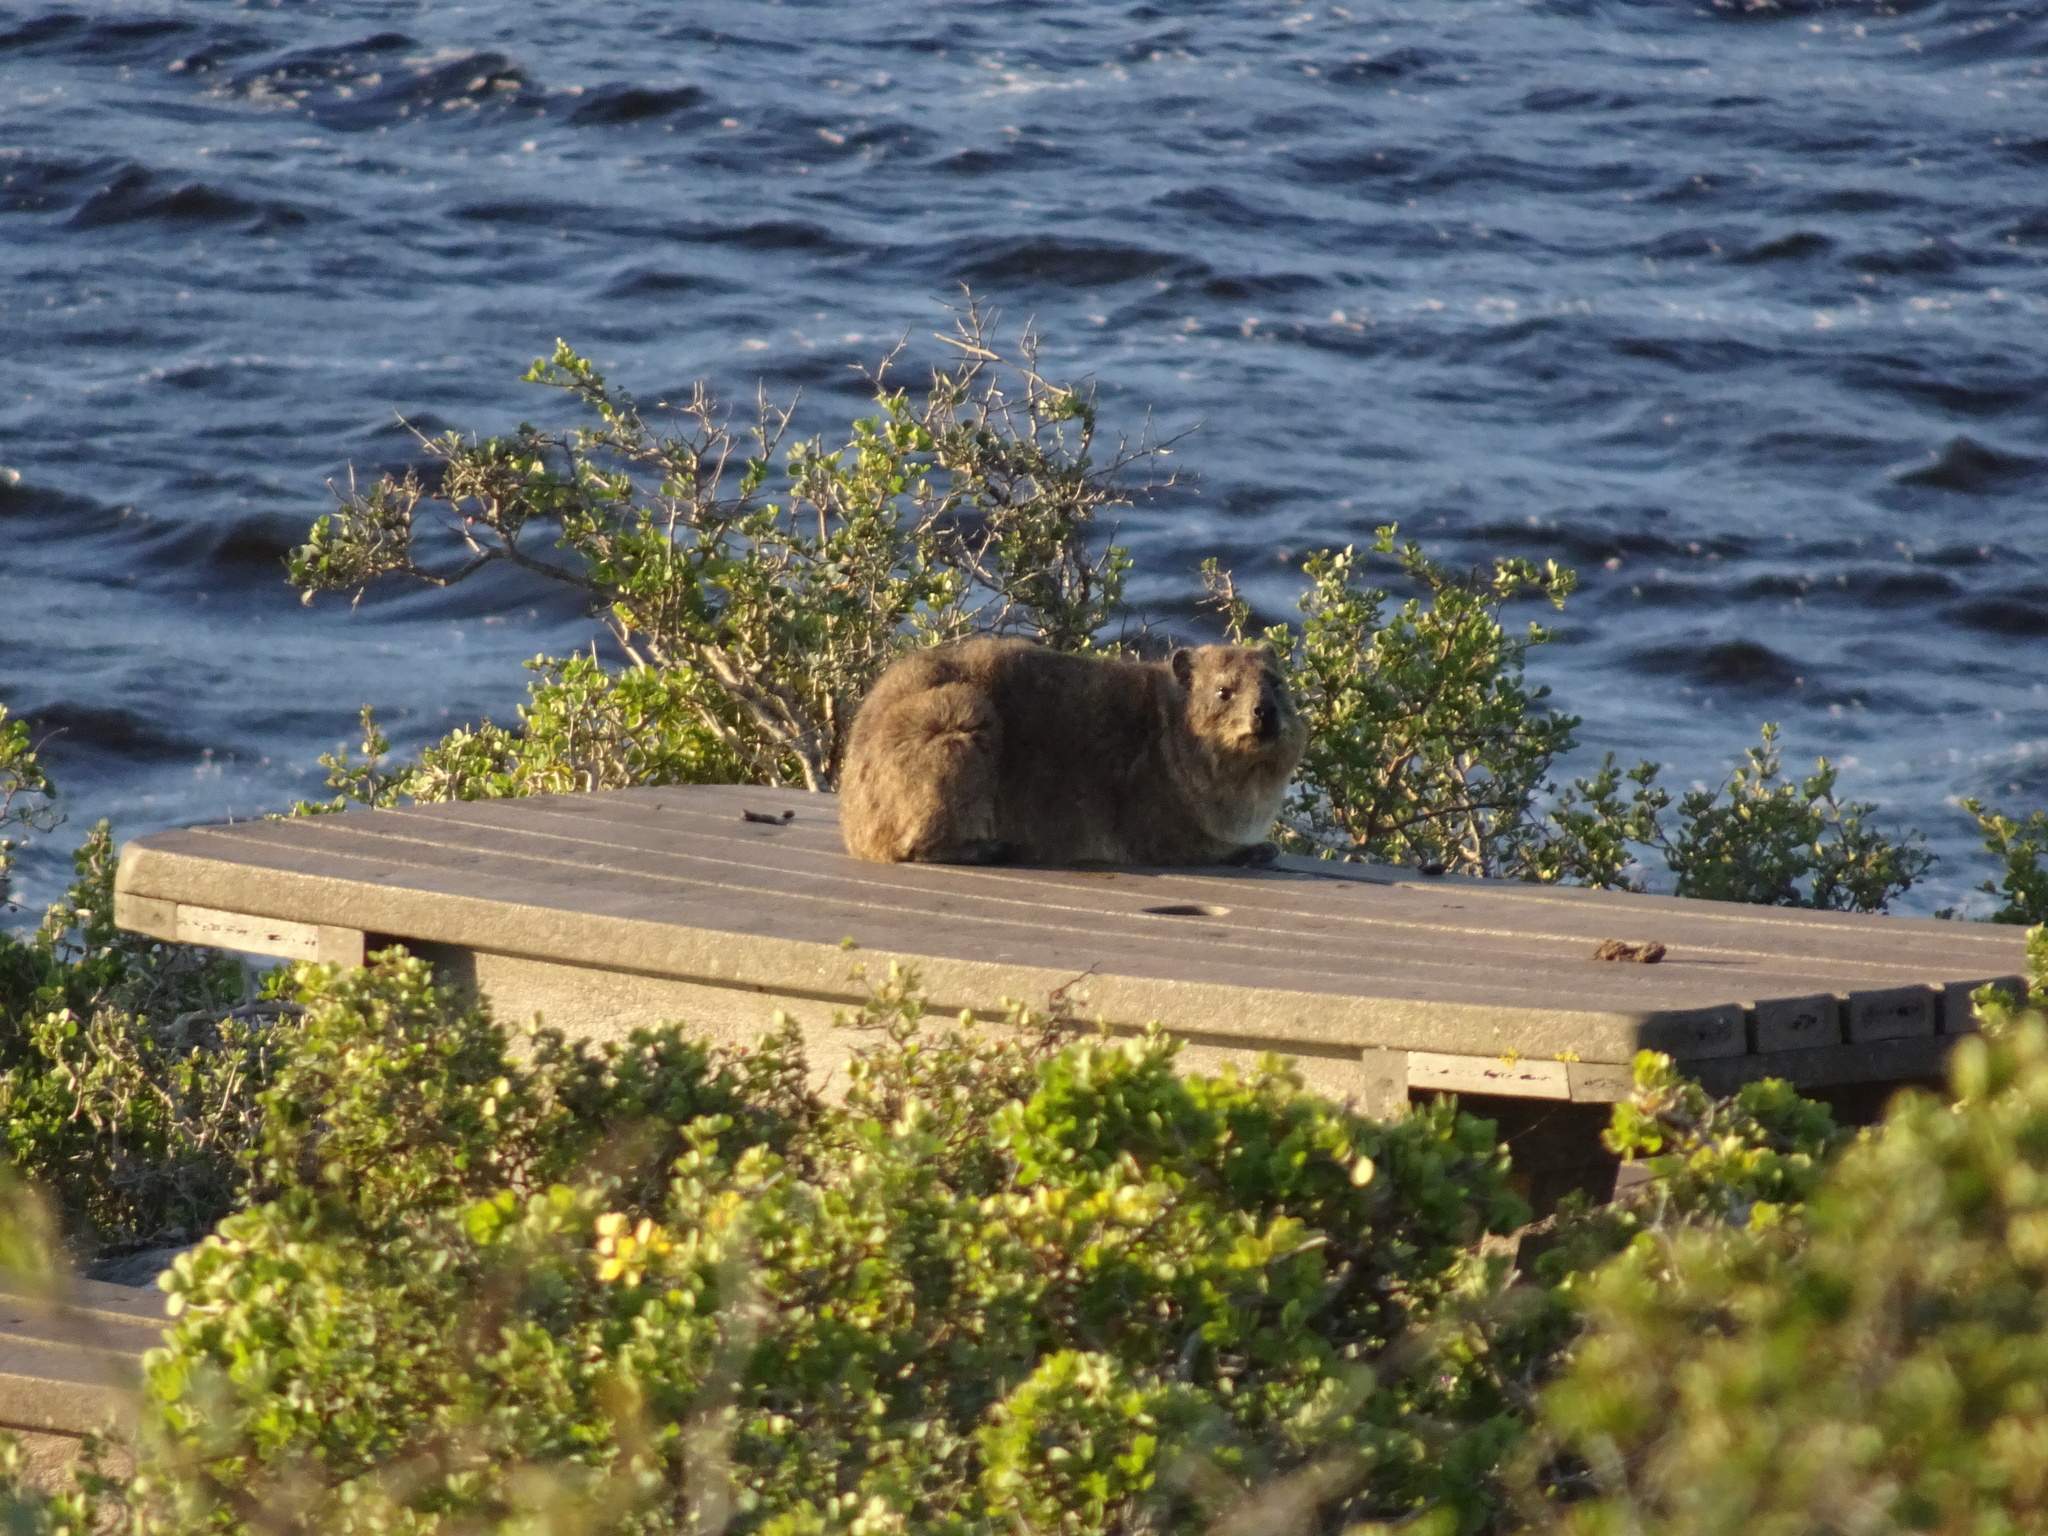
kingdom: Animalia
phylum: Chordata
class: Mammalia
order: Hyracoidea
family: Procaviidae
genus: Procavia
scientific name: Procavia capensis
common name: Rock hyrax
